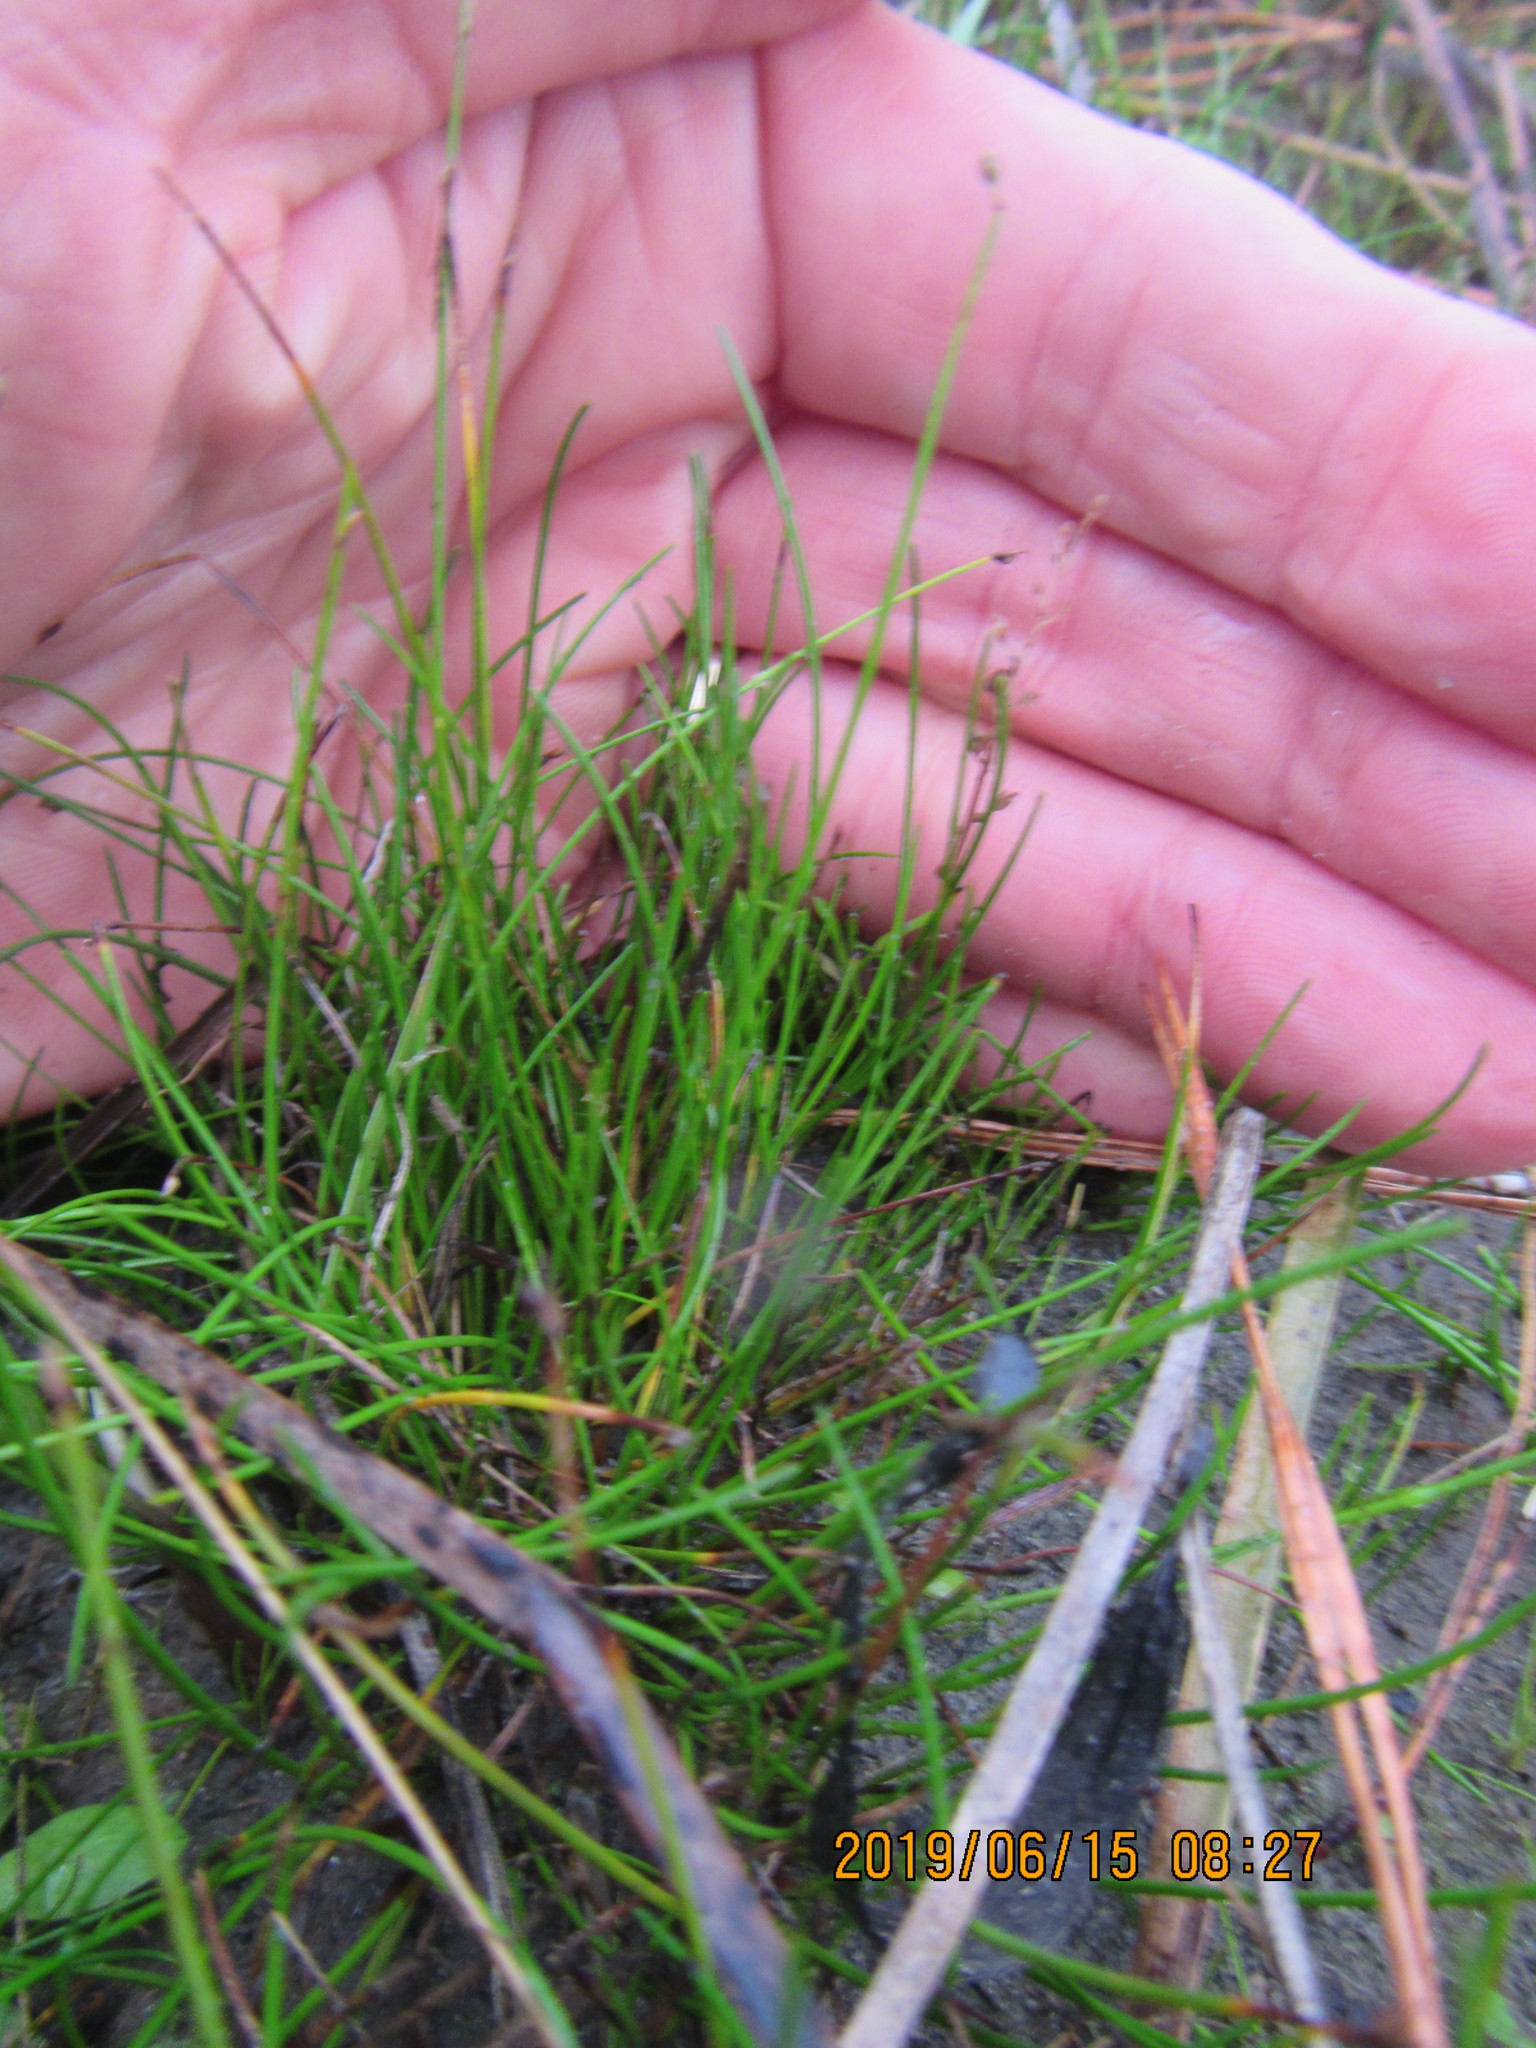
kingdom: Plantae
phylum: Tracheophyta
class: Liliopsida
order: Alismatales
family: Juncaginaceae
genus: Triglochin
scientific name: Triglochin striata
